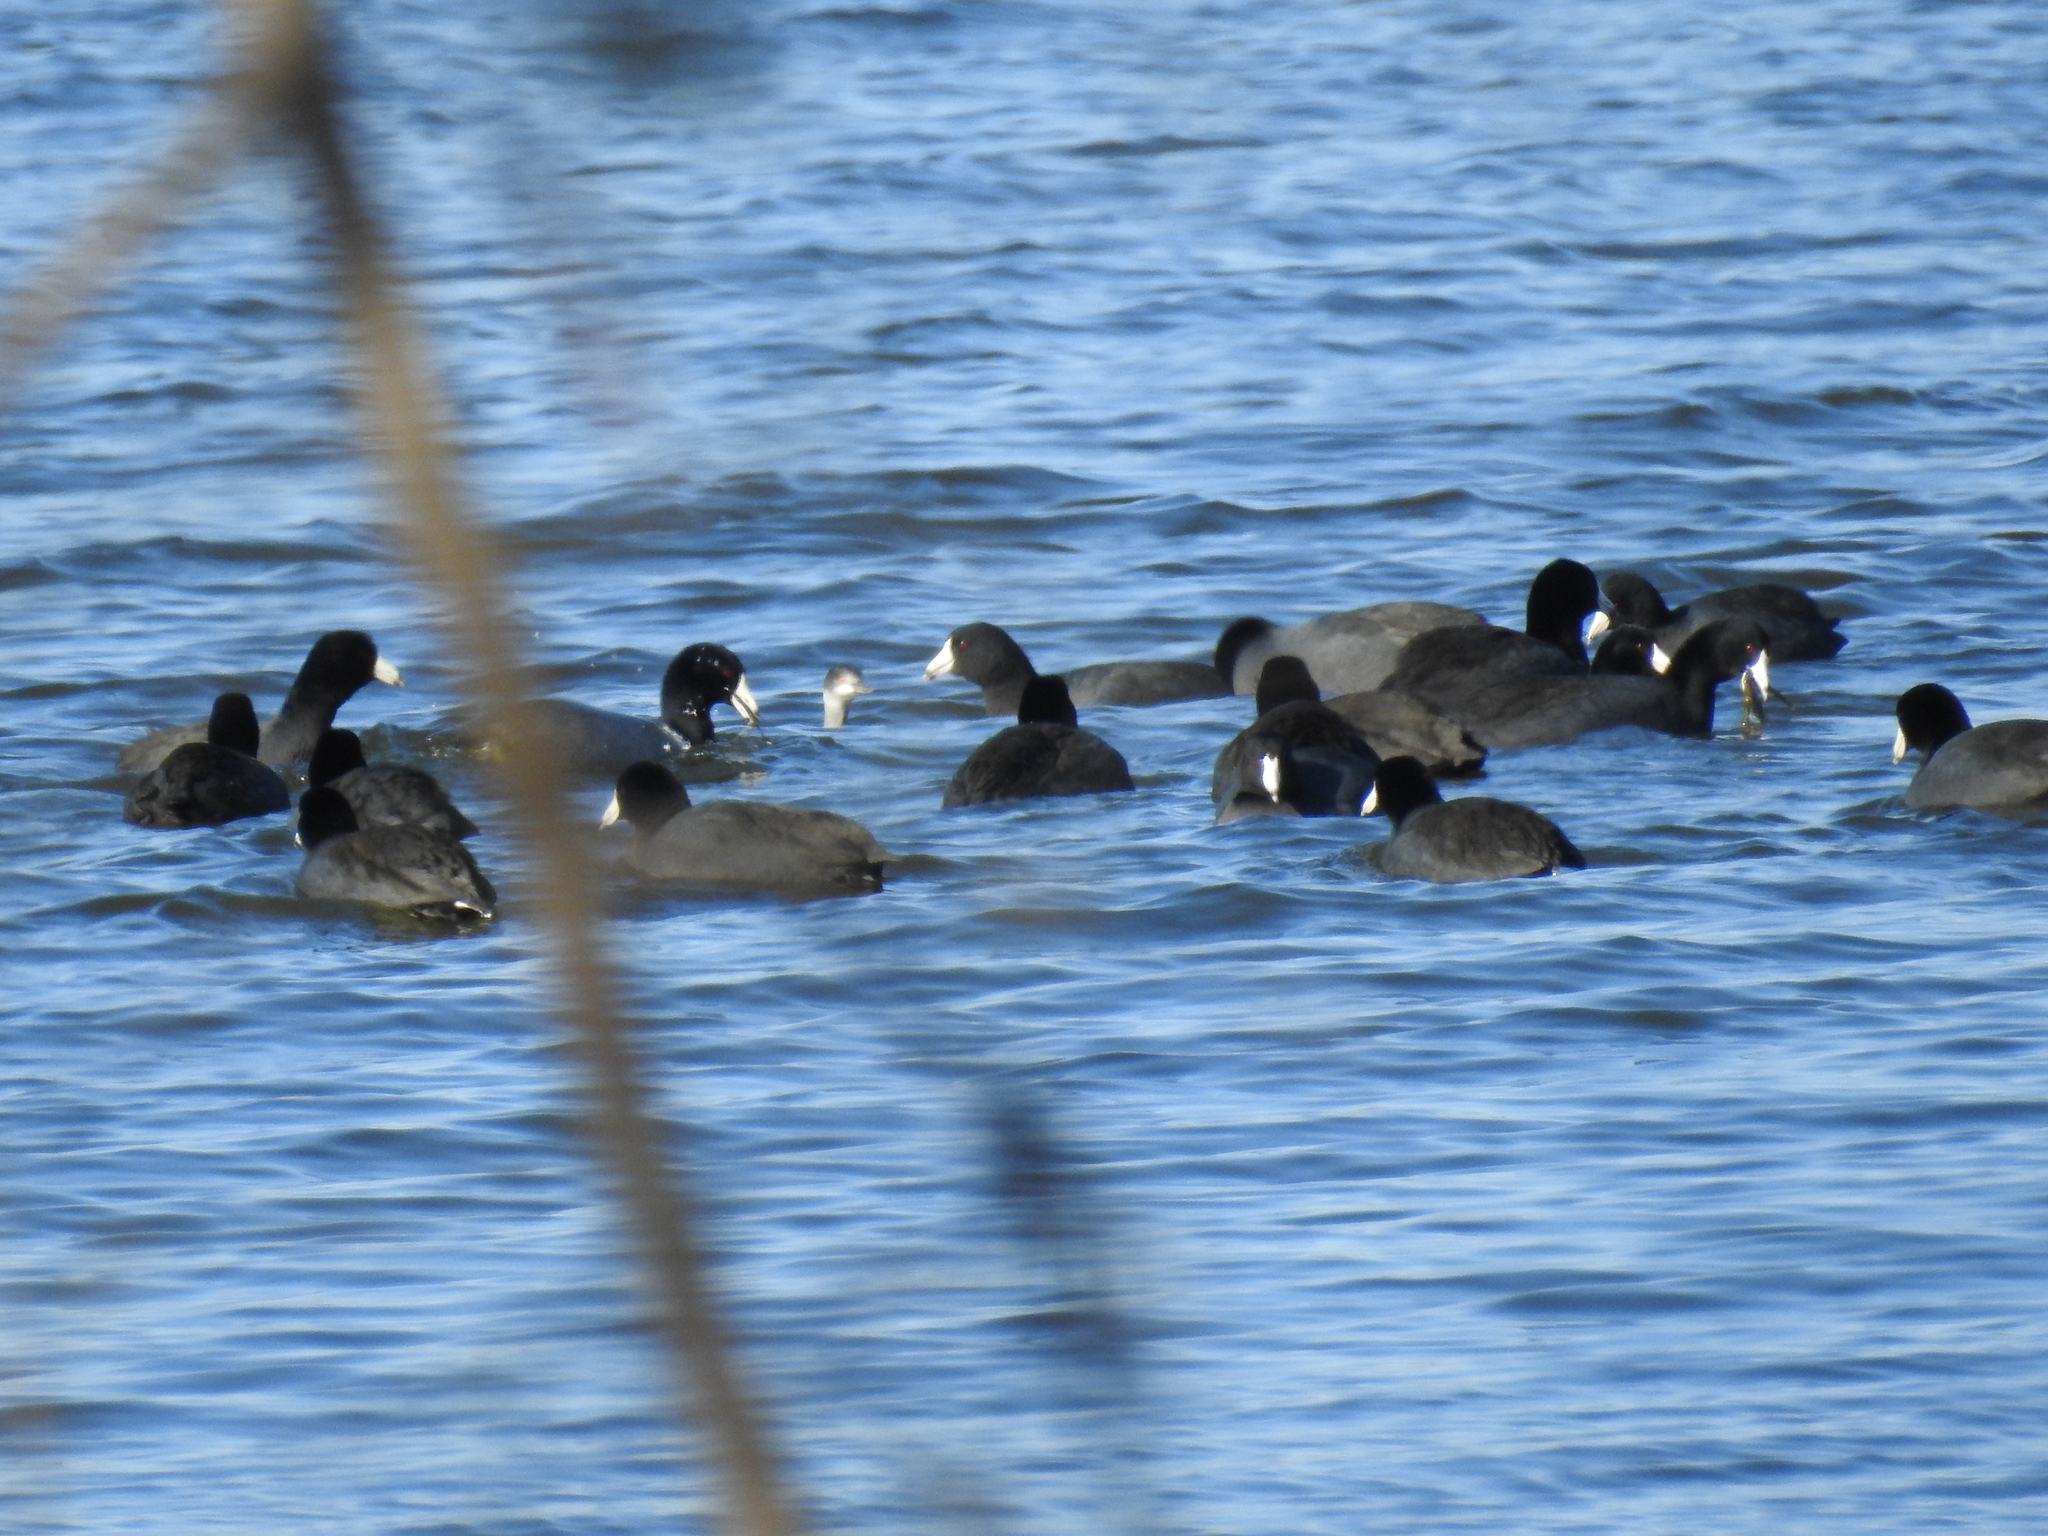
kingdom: Animalia
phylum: Chordata
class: Aves
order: Gruiformes
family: Rallidae
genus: Fulica
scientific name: Fulica americana
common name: American coot
